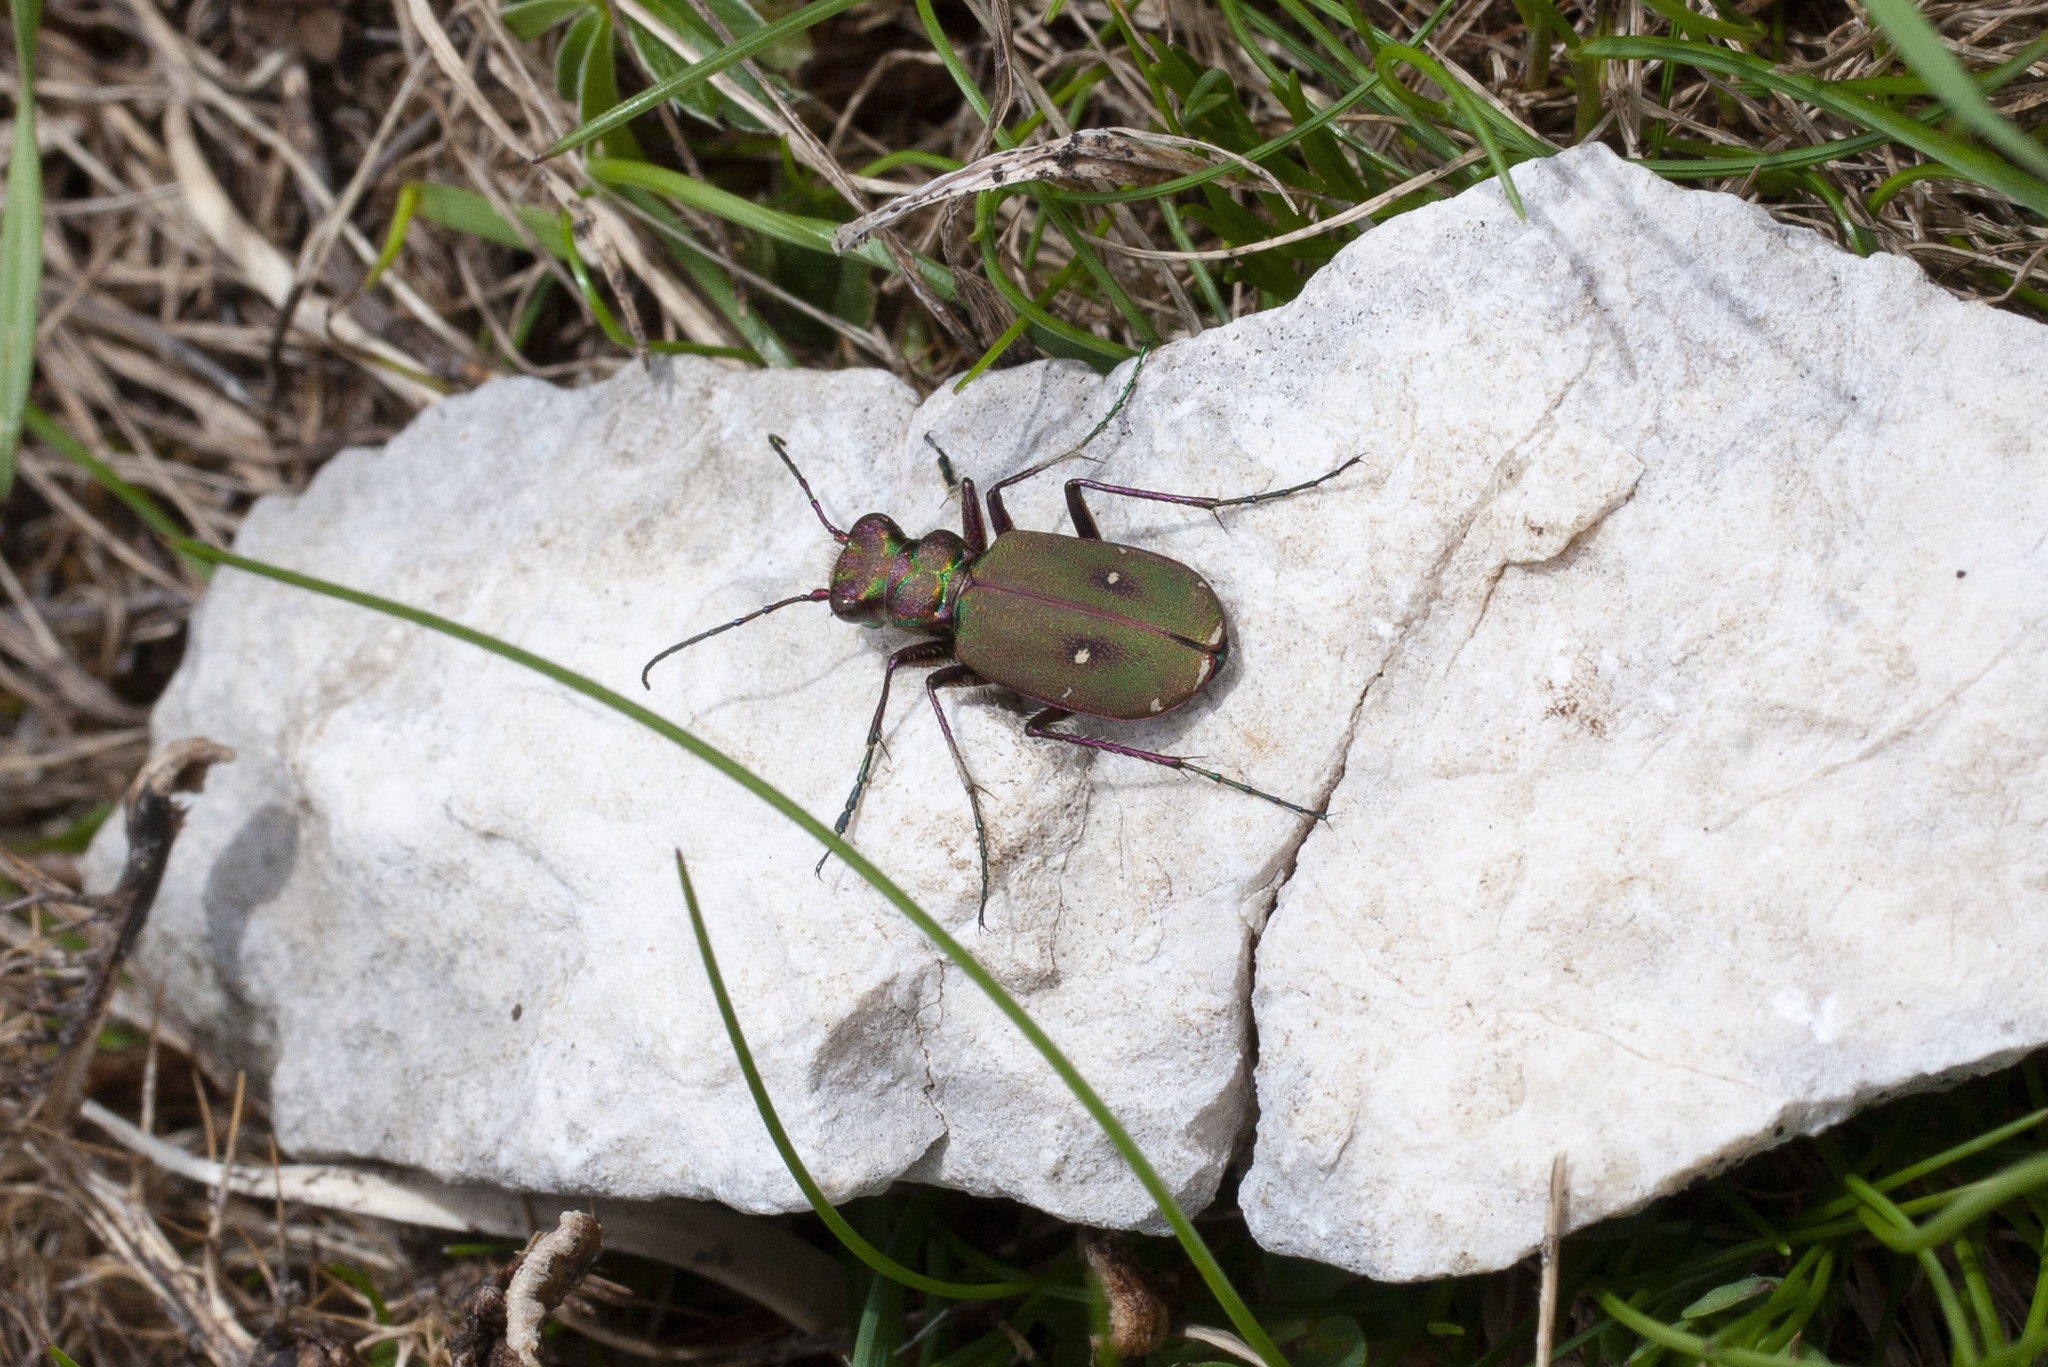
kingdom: Animalia
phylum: Arthropoda
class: Insecta
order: Coleoptera
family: Carabidae
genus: Cicindela
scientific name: Cicindela campestris
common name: Common tiger beetle
